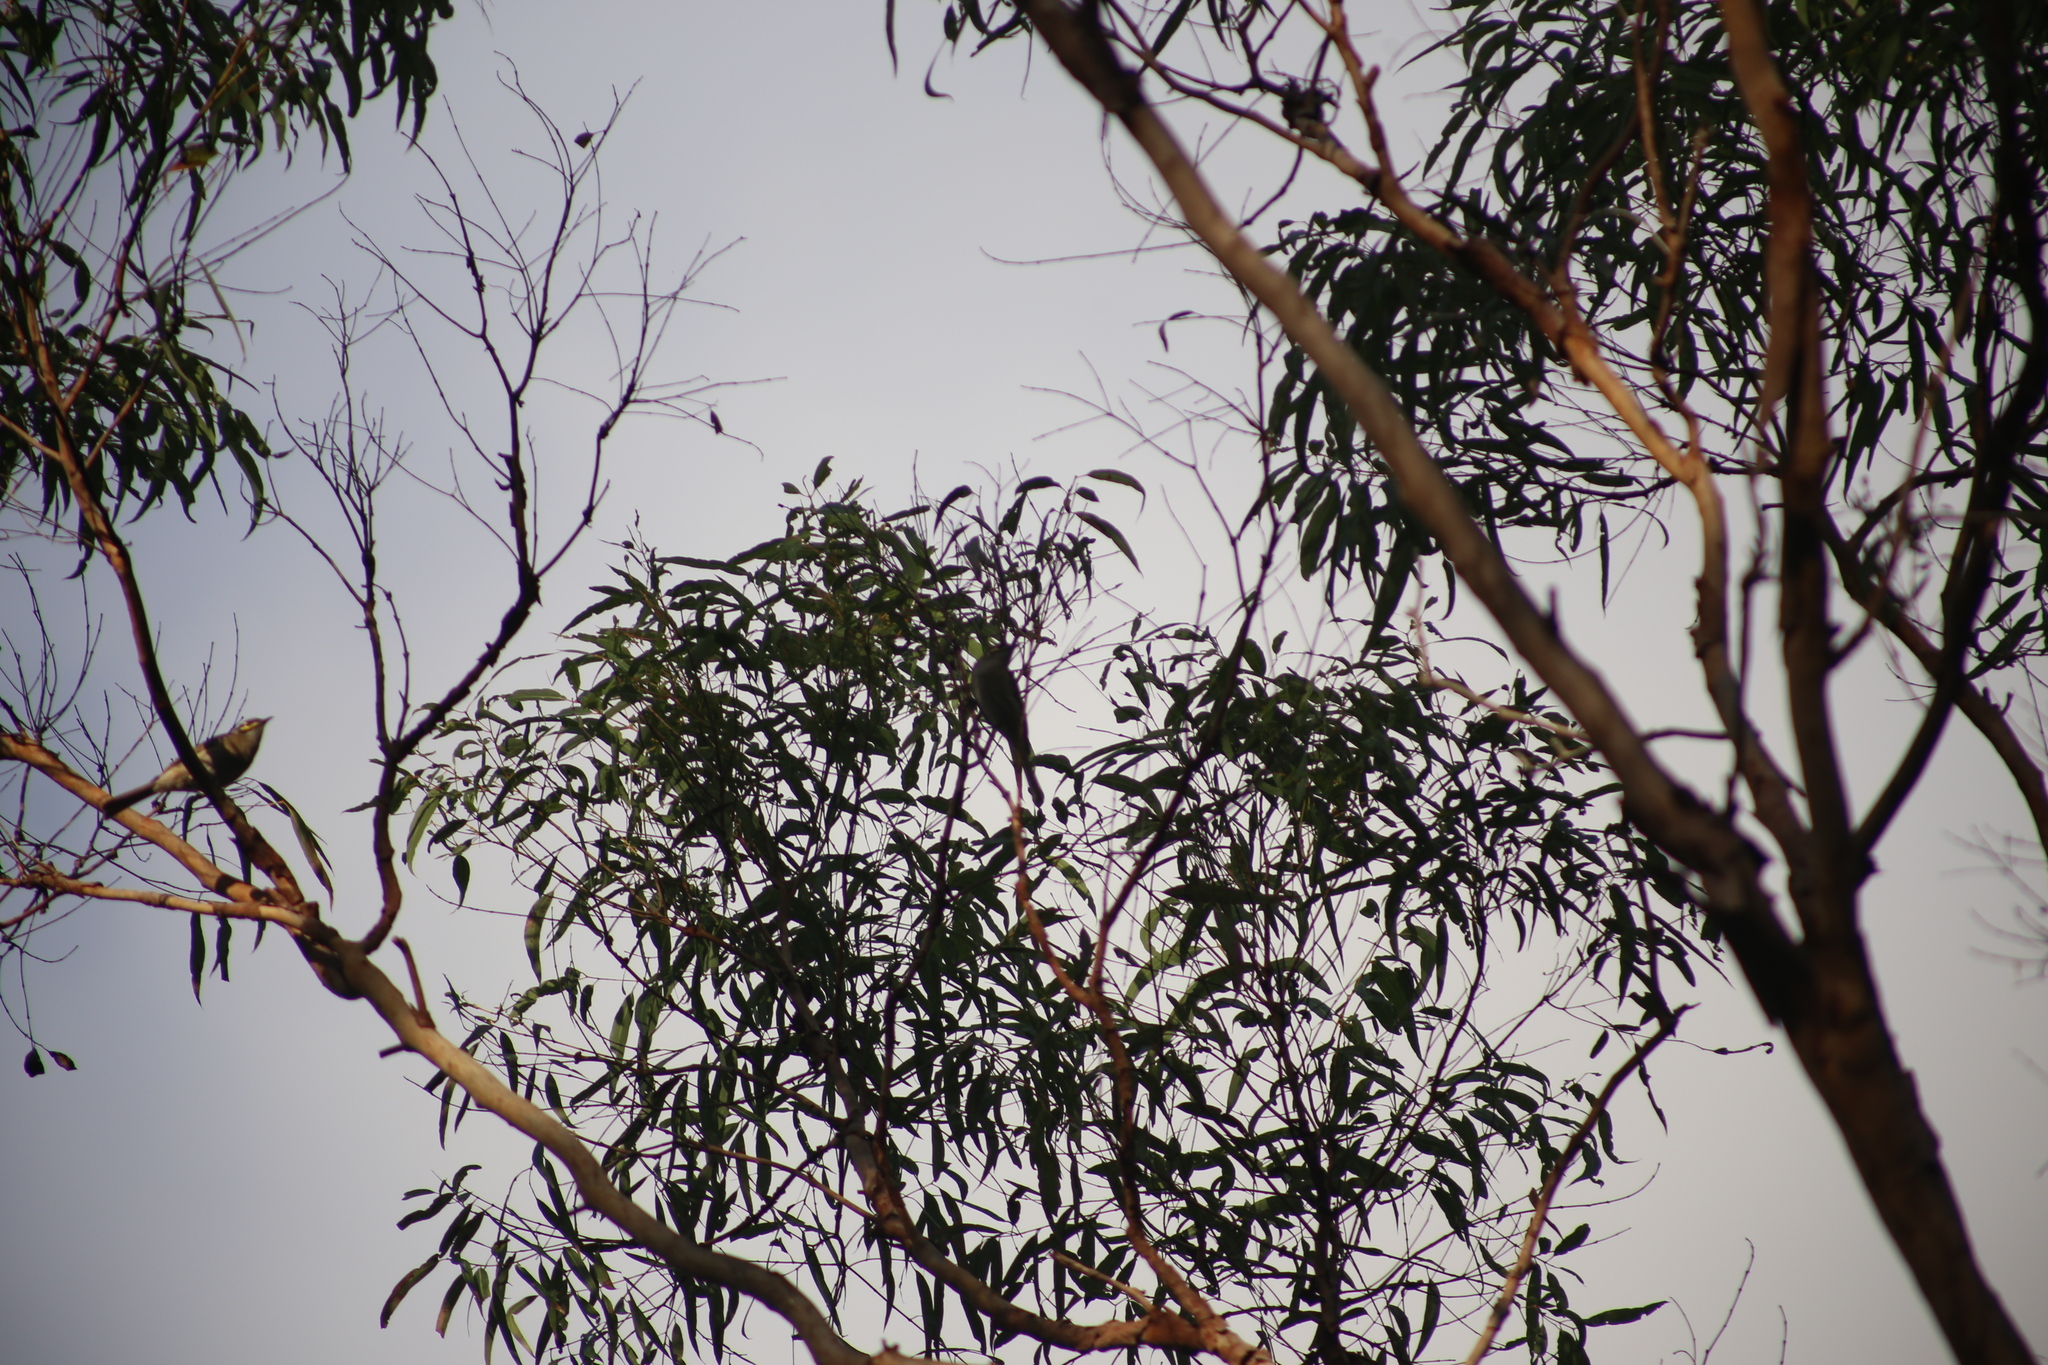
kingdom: Animalia
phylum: Chordata
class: Aves
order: Passeriformes
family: Meliphagidae
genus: Caligavis
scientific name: Caligavis chrysops
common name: Yellow-faced honeyeater
